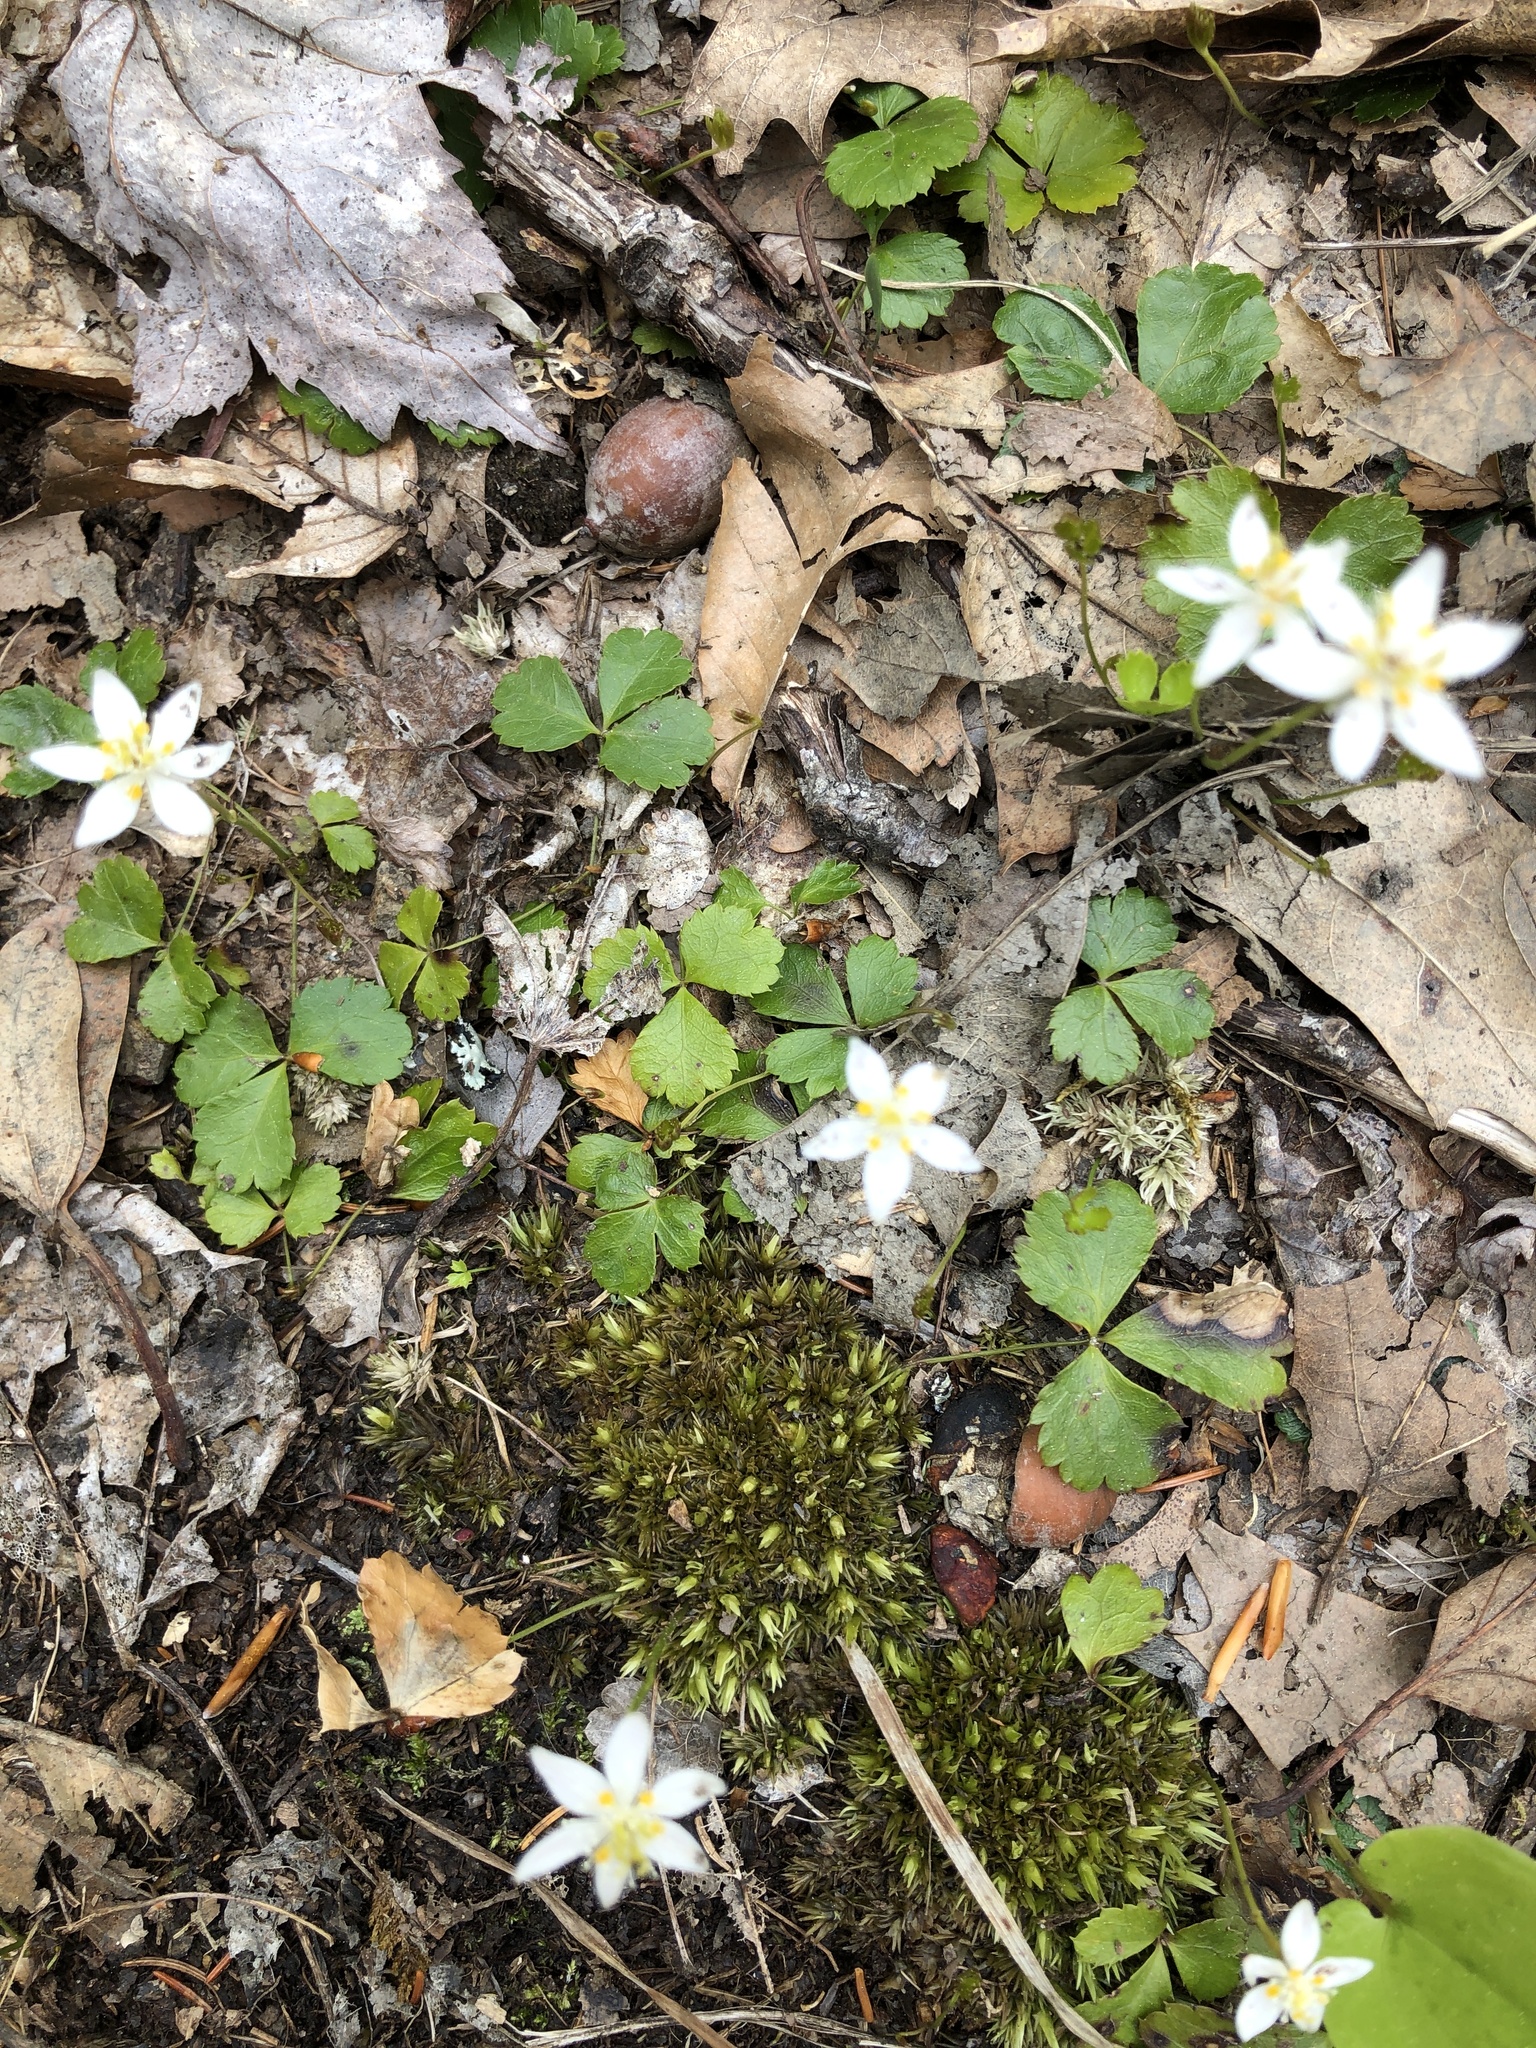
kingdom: Plantae
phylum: Tracheophyta
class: Magnoliopsida
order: Ranunculales
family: Ranunculaceae
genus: Coptis
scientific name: Coptis trifolia
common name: Canker-root
